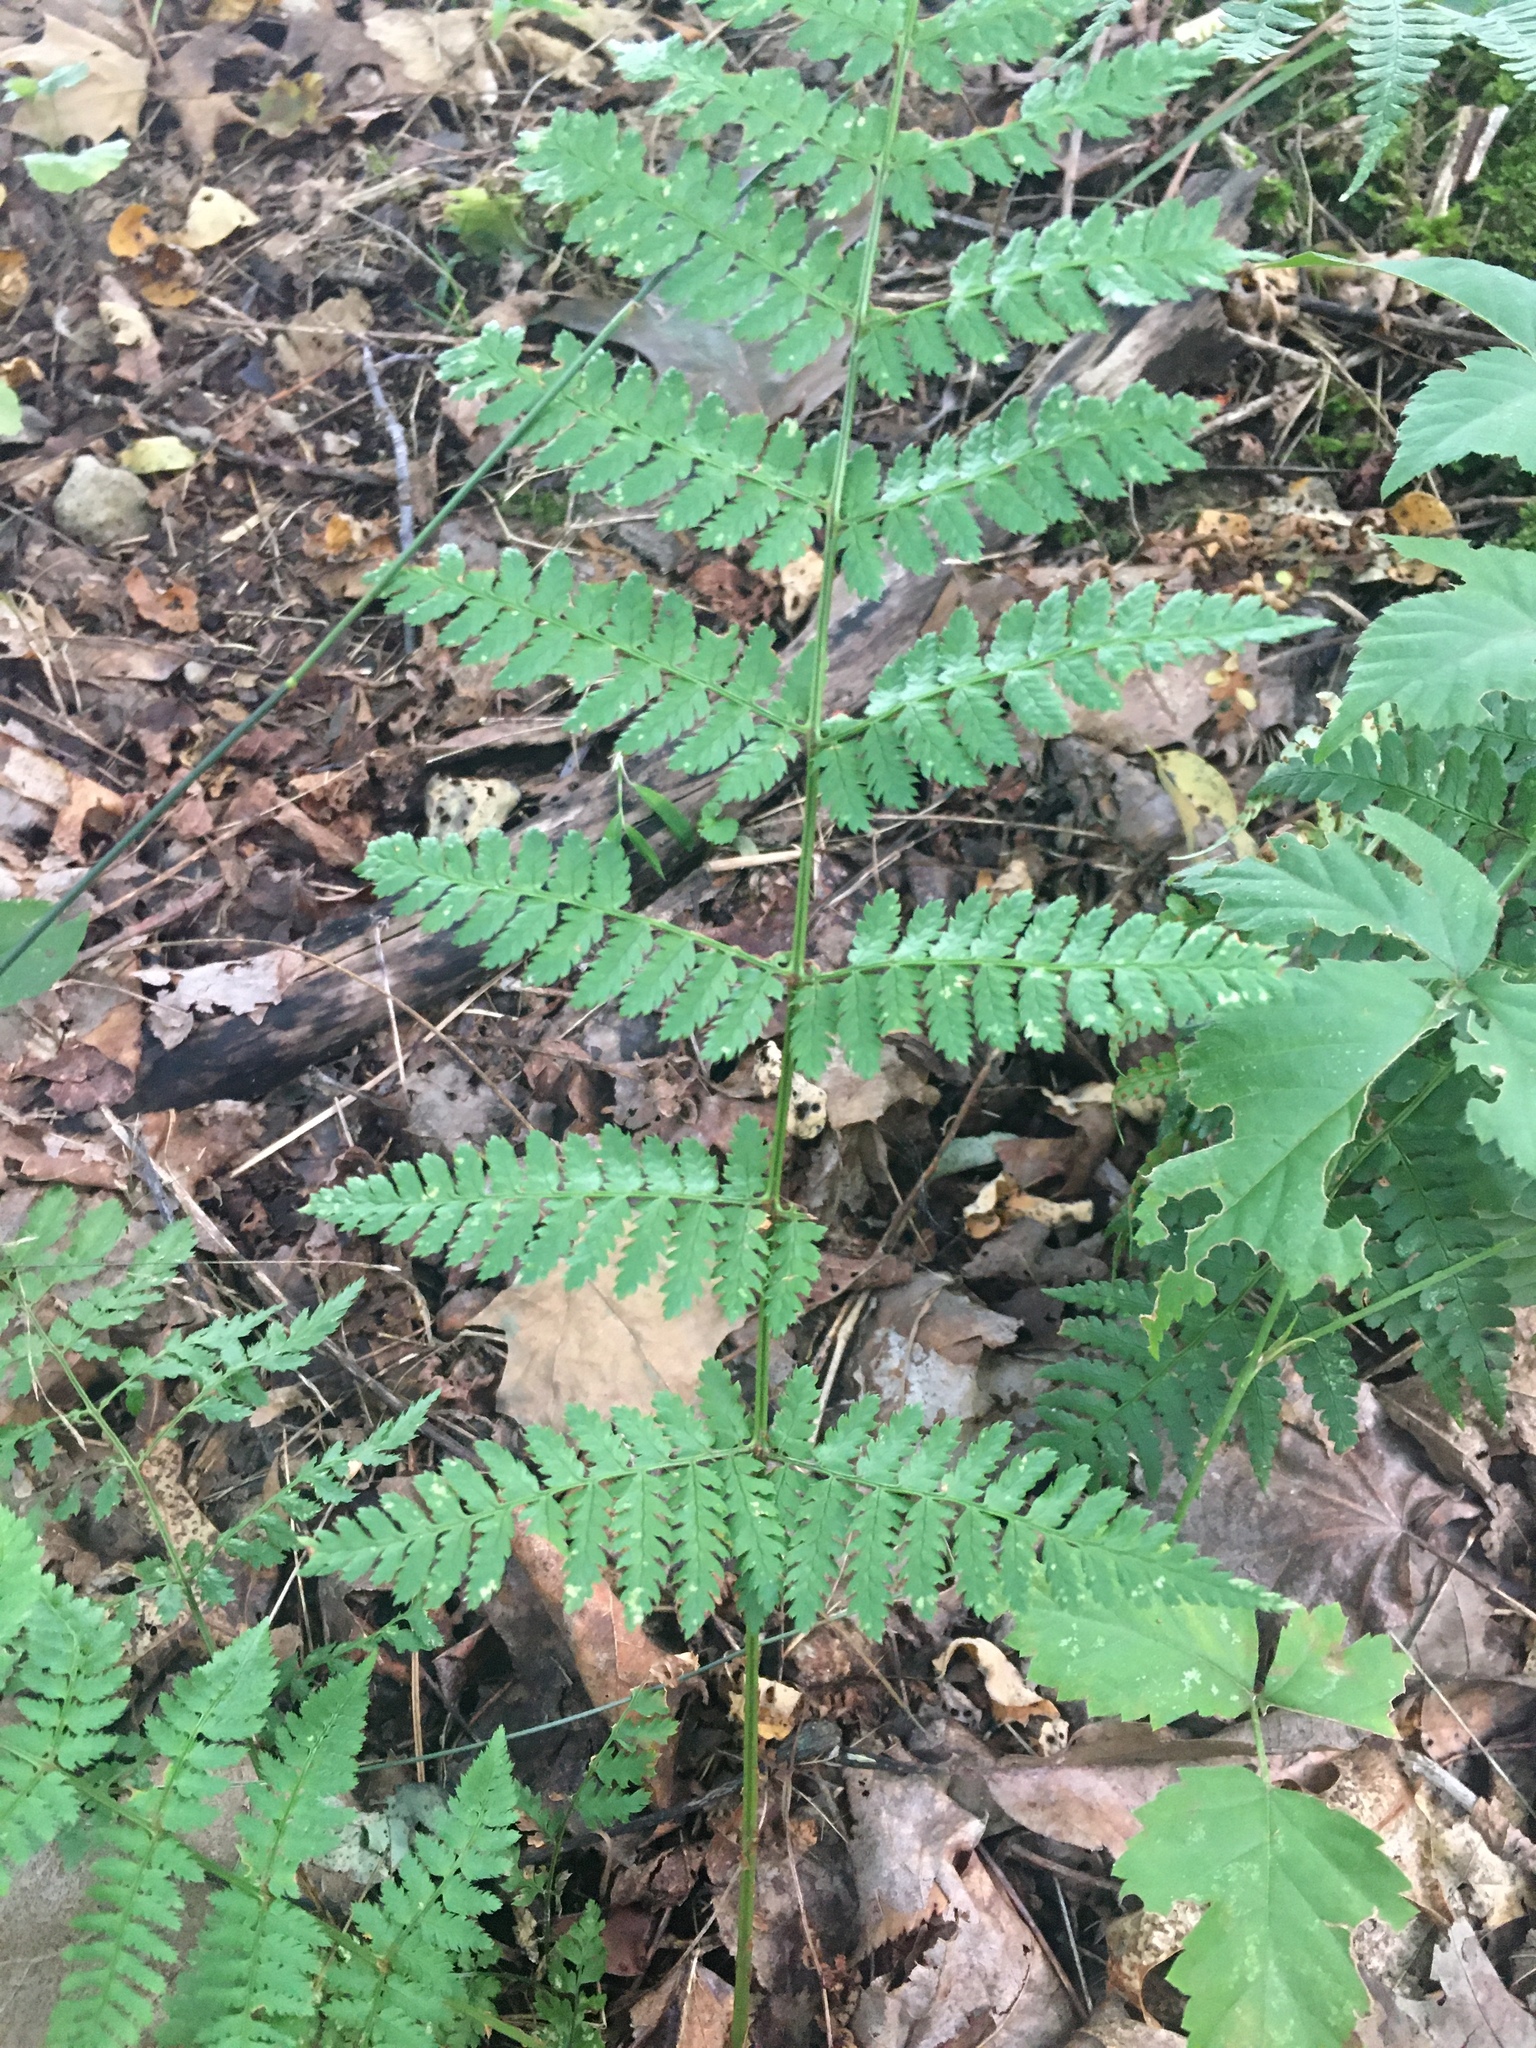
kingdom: Plantae
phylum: Tracheophyta
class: Polypodiopsida
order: Polypodiales
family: Dryopteridaceae
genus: Dryopteris
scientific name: Dryopteris intermedia
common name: Evergreen wood fern
